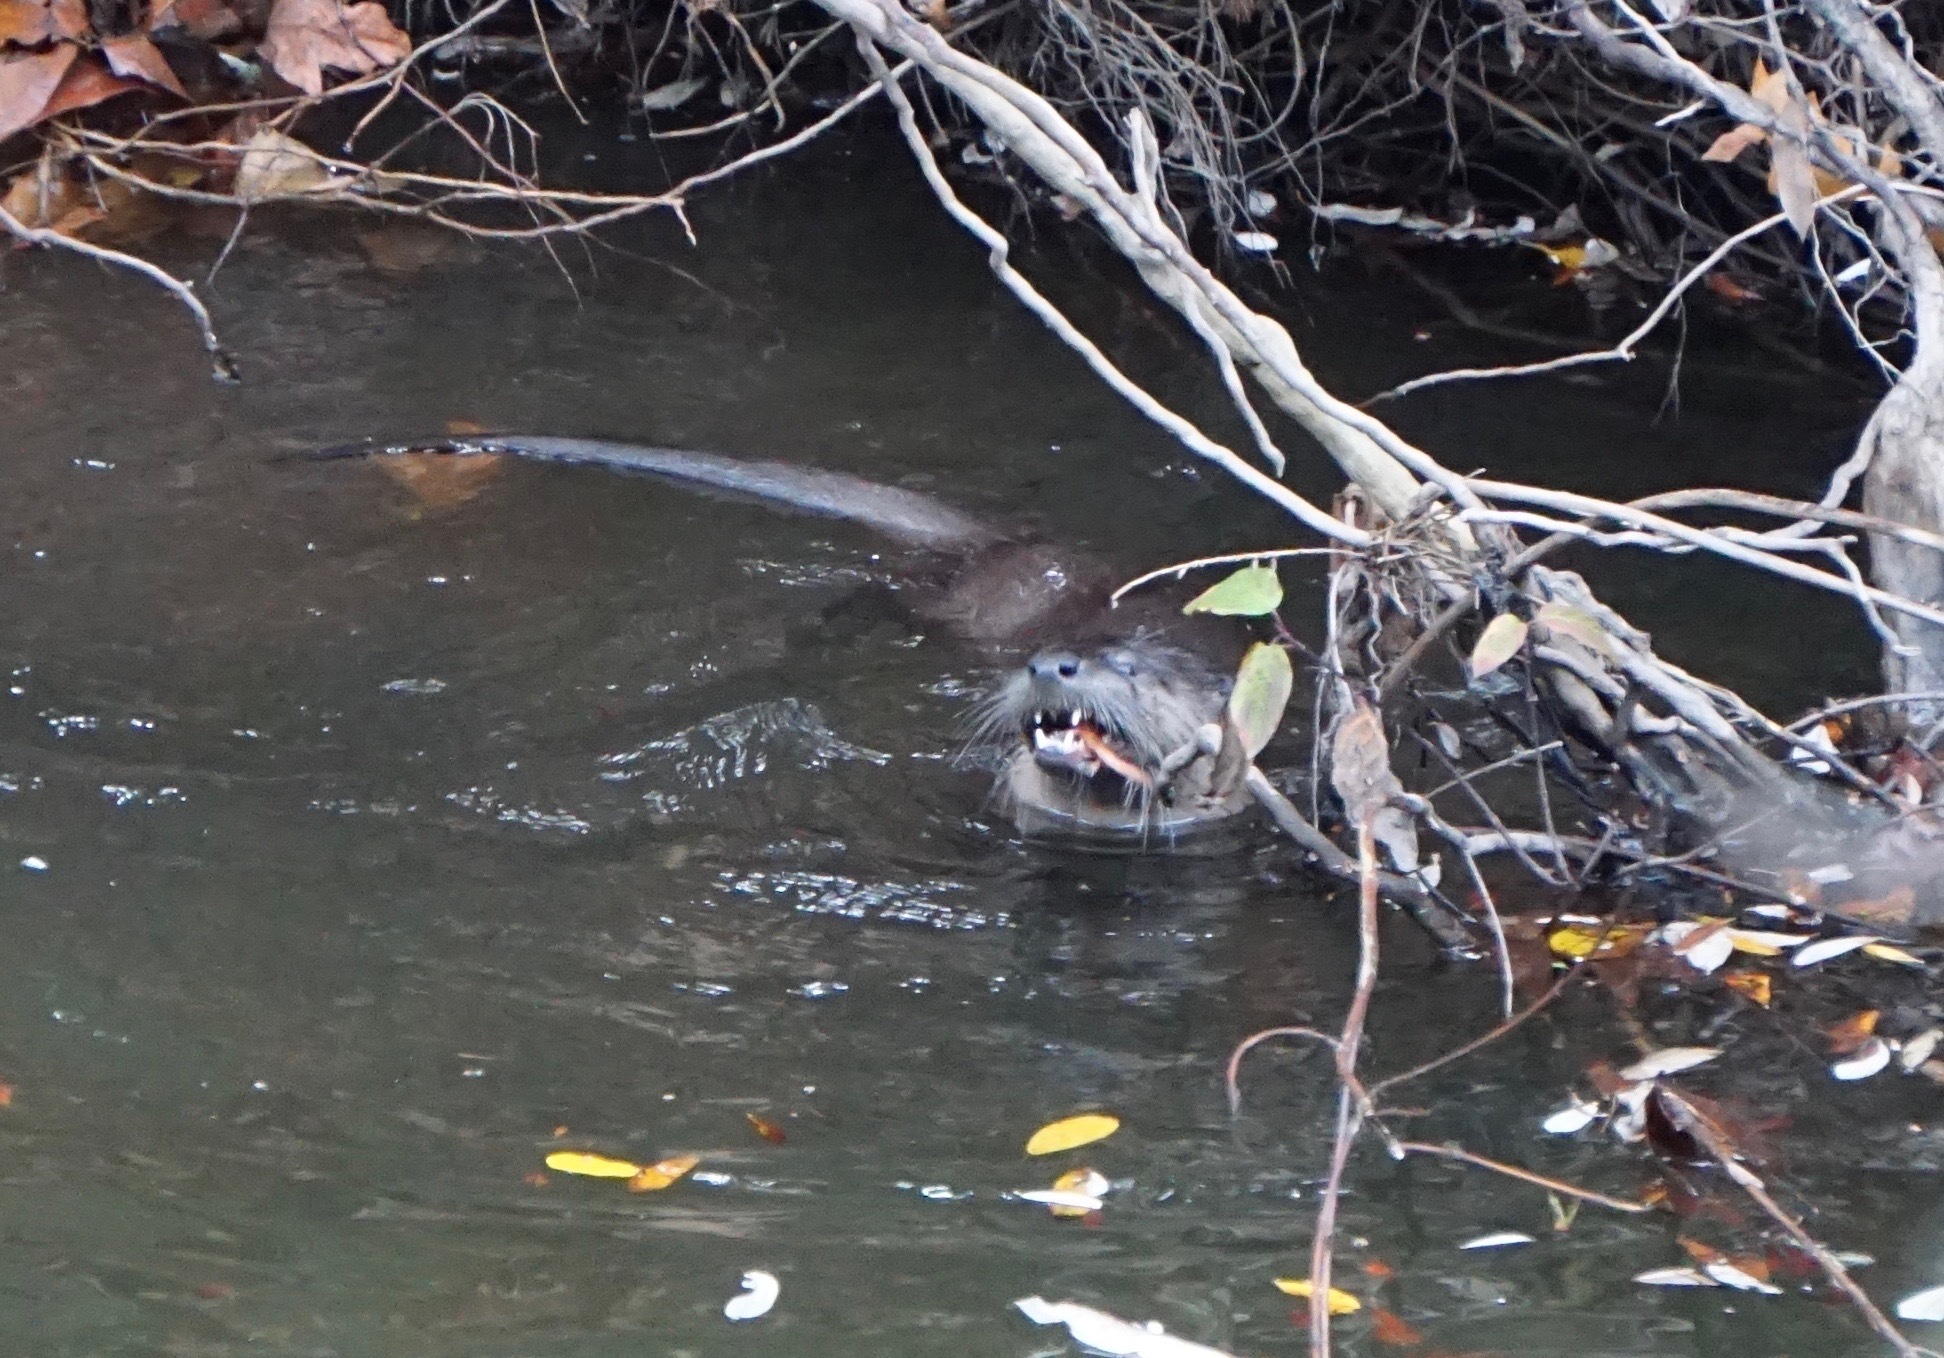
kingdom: Animalia
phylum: Chordata
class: Mammalia
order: Carnivora
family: Mustelidae
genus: Lontra
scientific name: Lontra canadensis
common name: North american river otter
